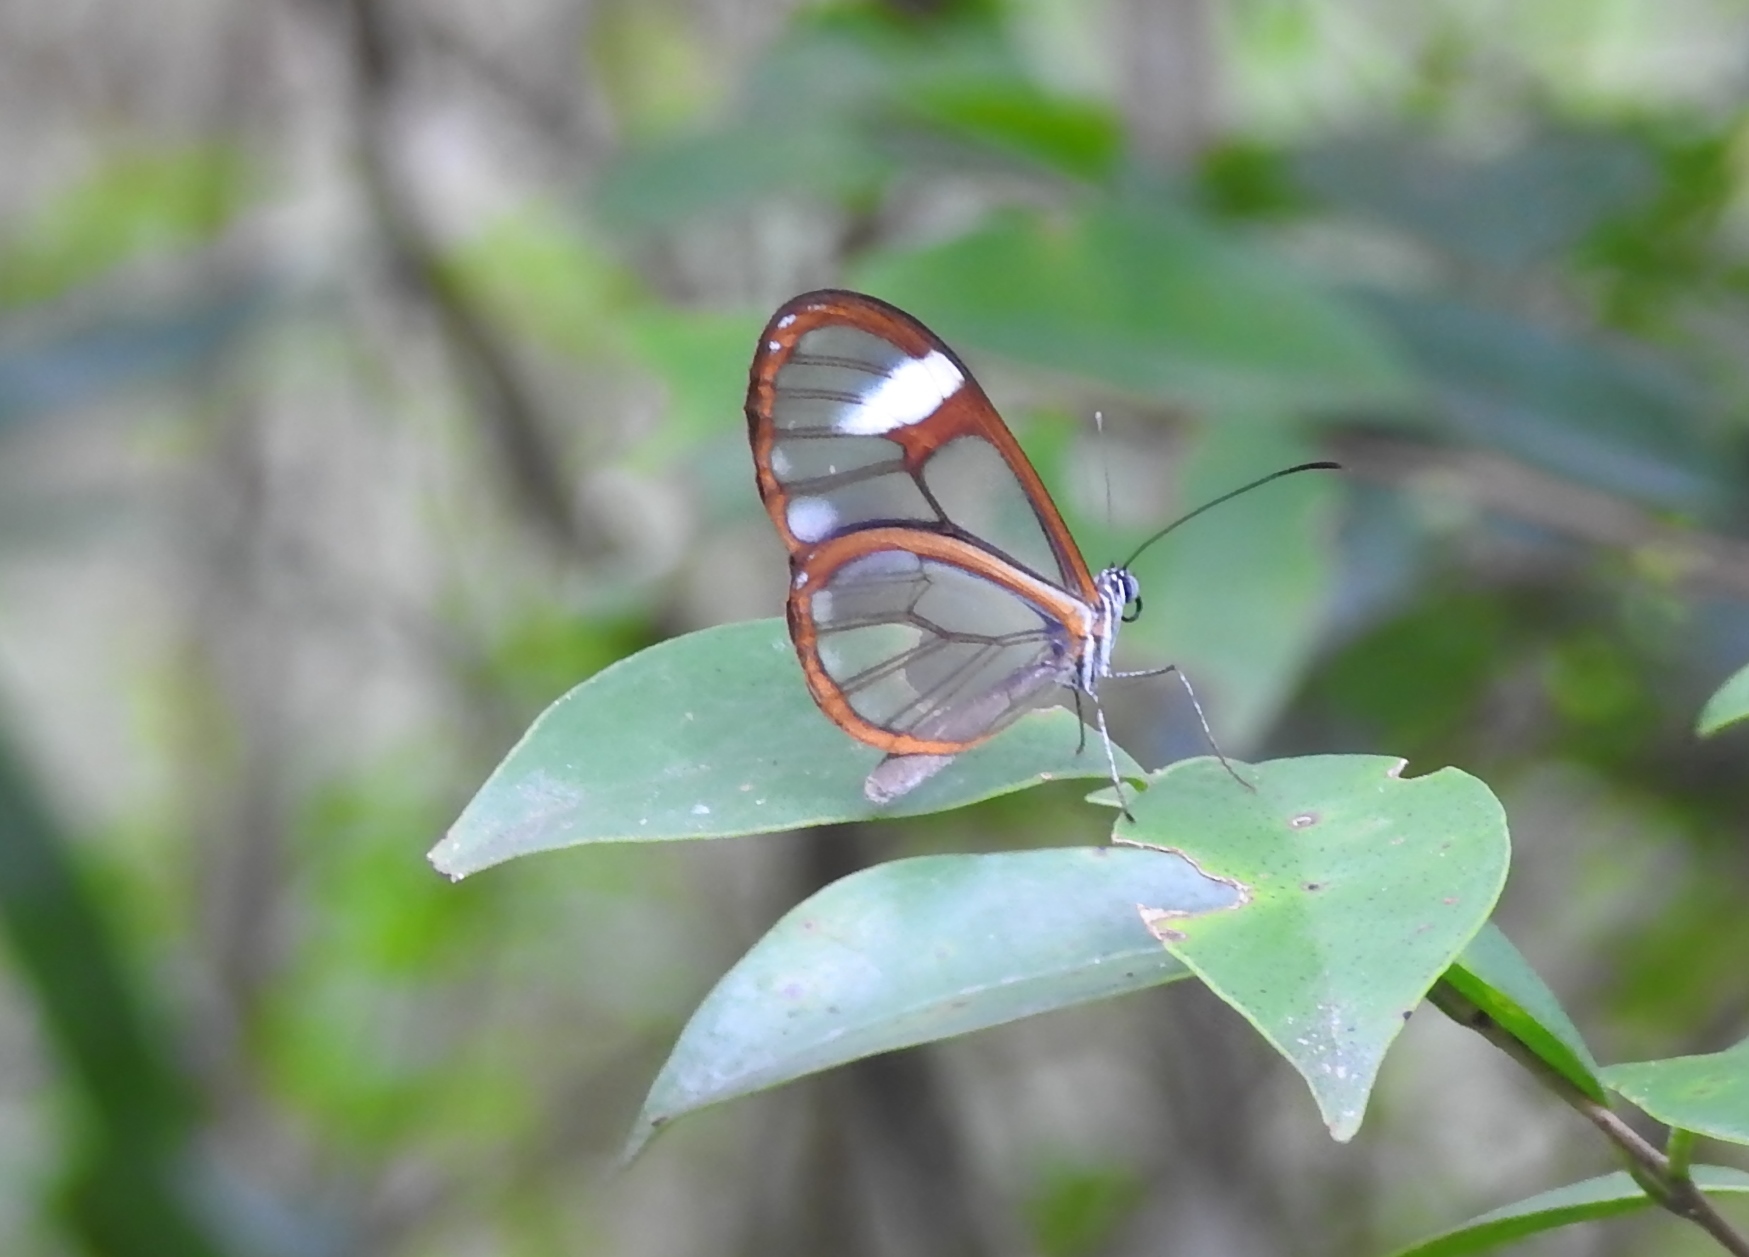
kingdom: Animalia
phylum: Arthropoda
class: Insecta
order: Lepidoptera
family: Nymphalidae
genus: Pteronymia
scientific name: Pteronymia artena
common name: Artena clearwing
